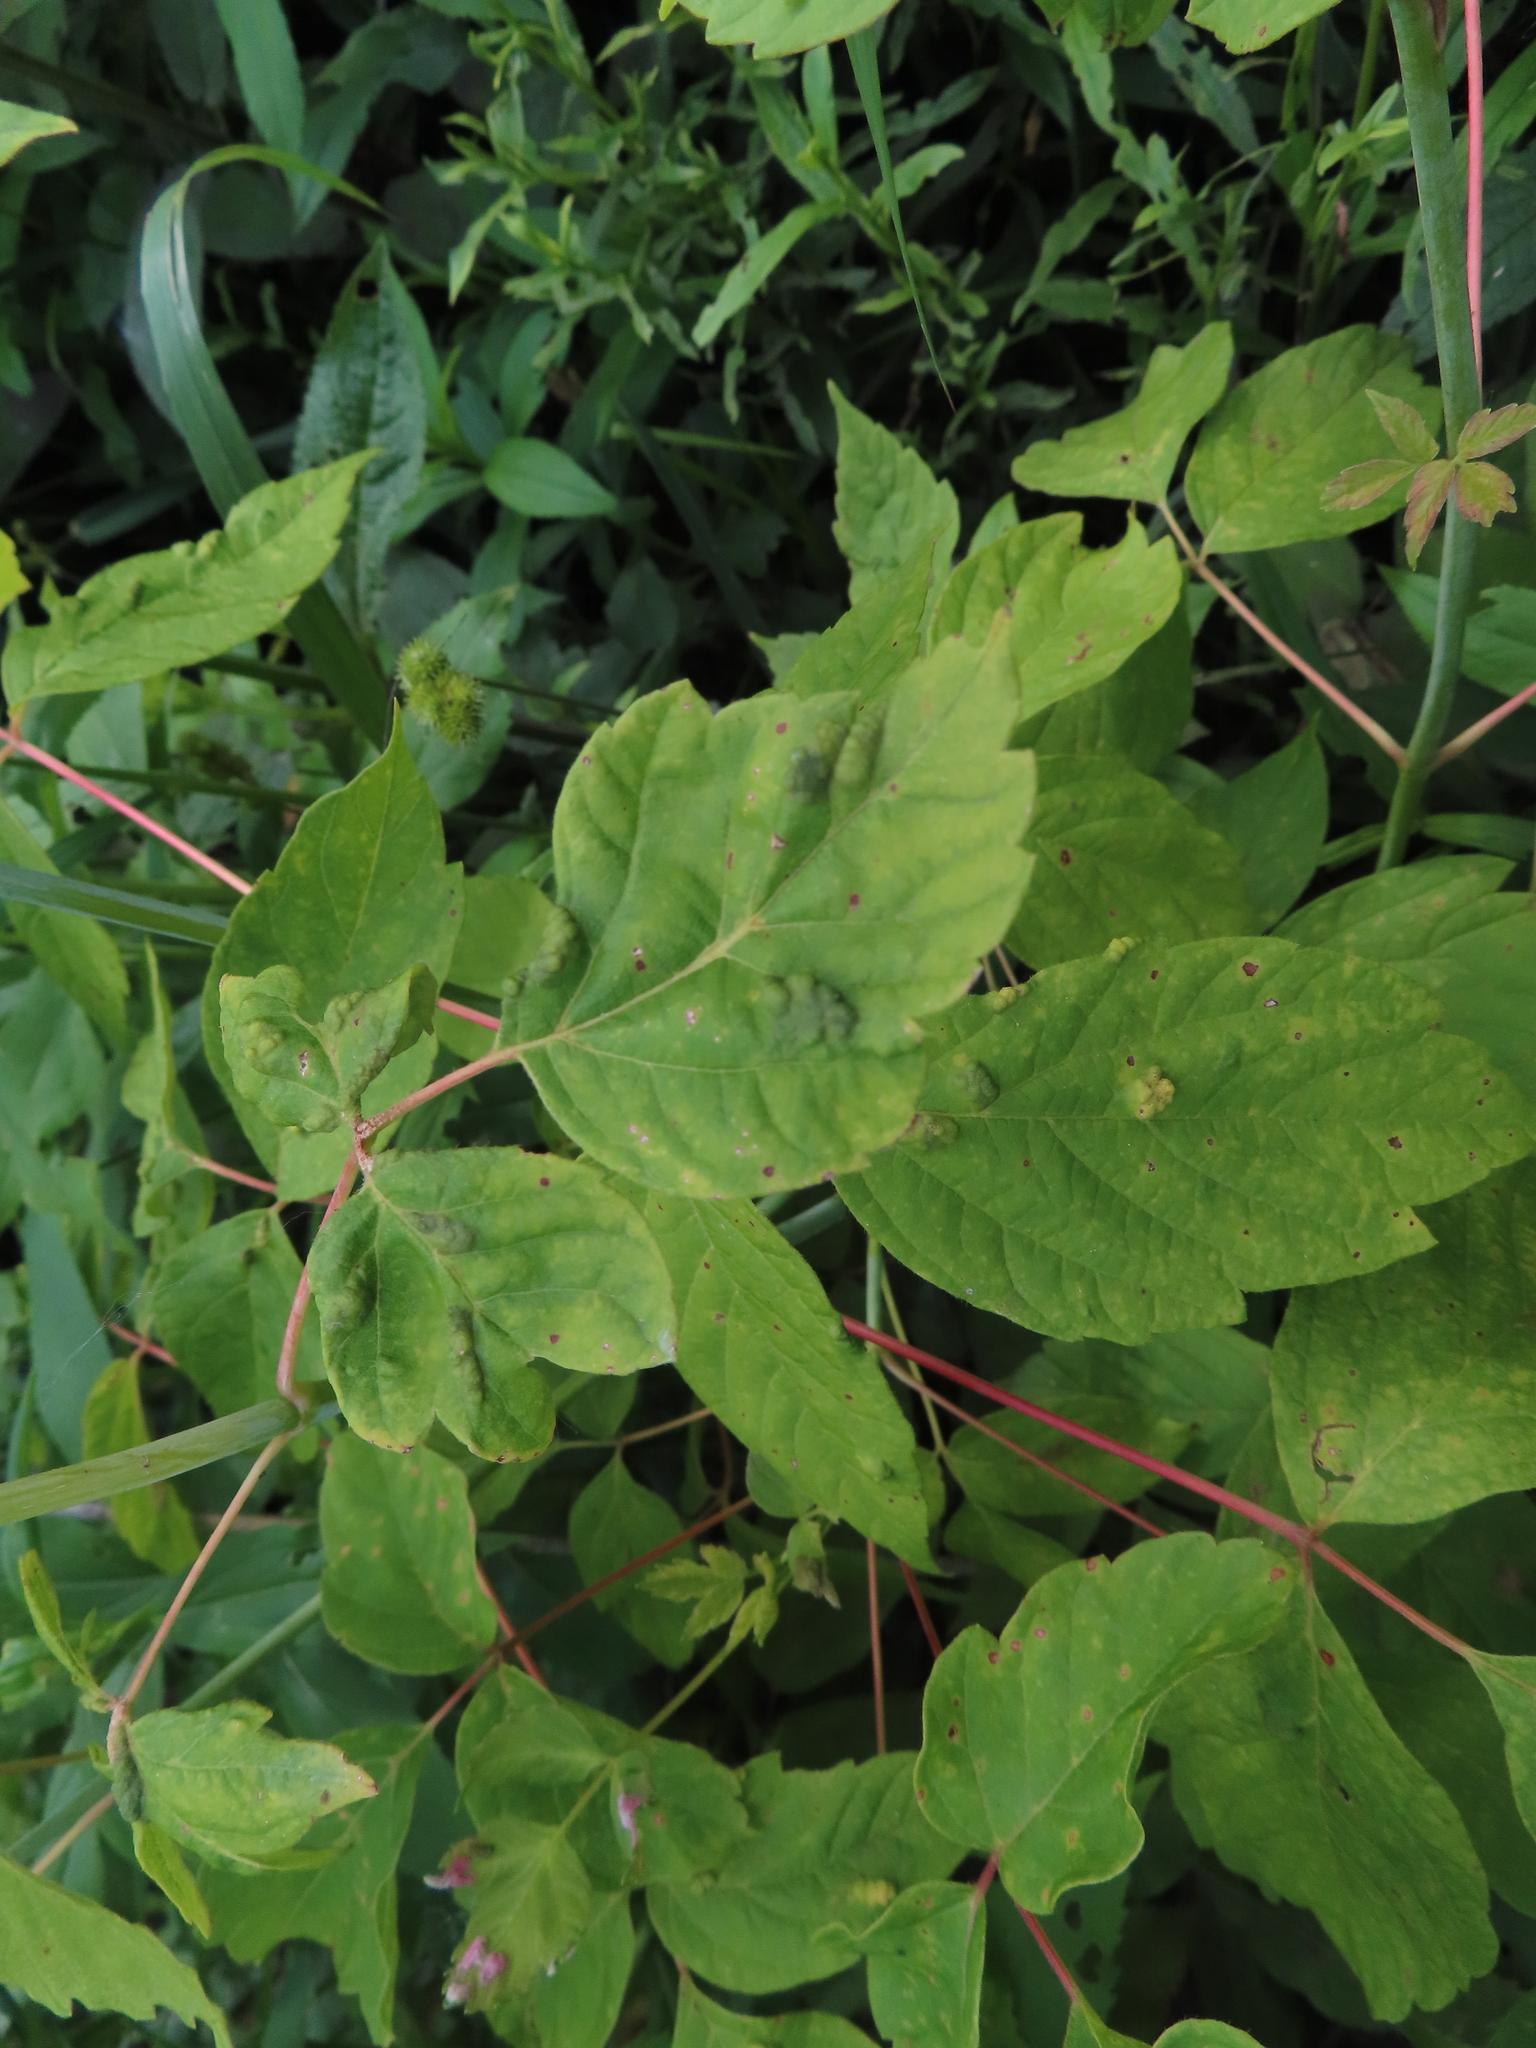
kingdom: Plantae
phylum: Tracheophyta
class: Magnoliopsida
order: Sapindales
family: Sapindaceae
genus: Acer
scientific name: Acer negundo
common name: Ashleaf maple
